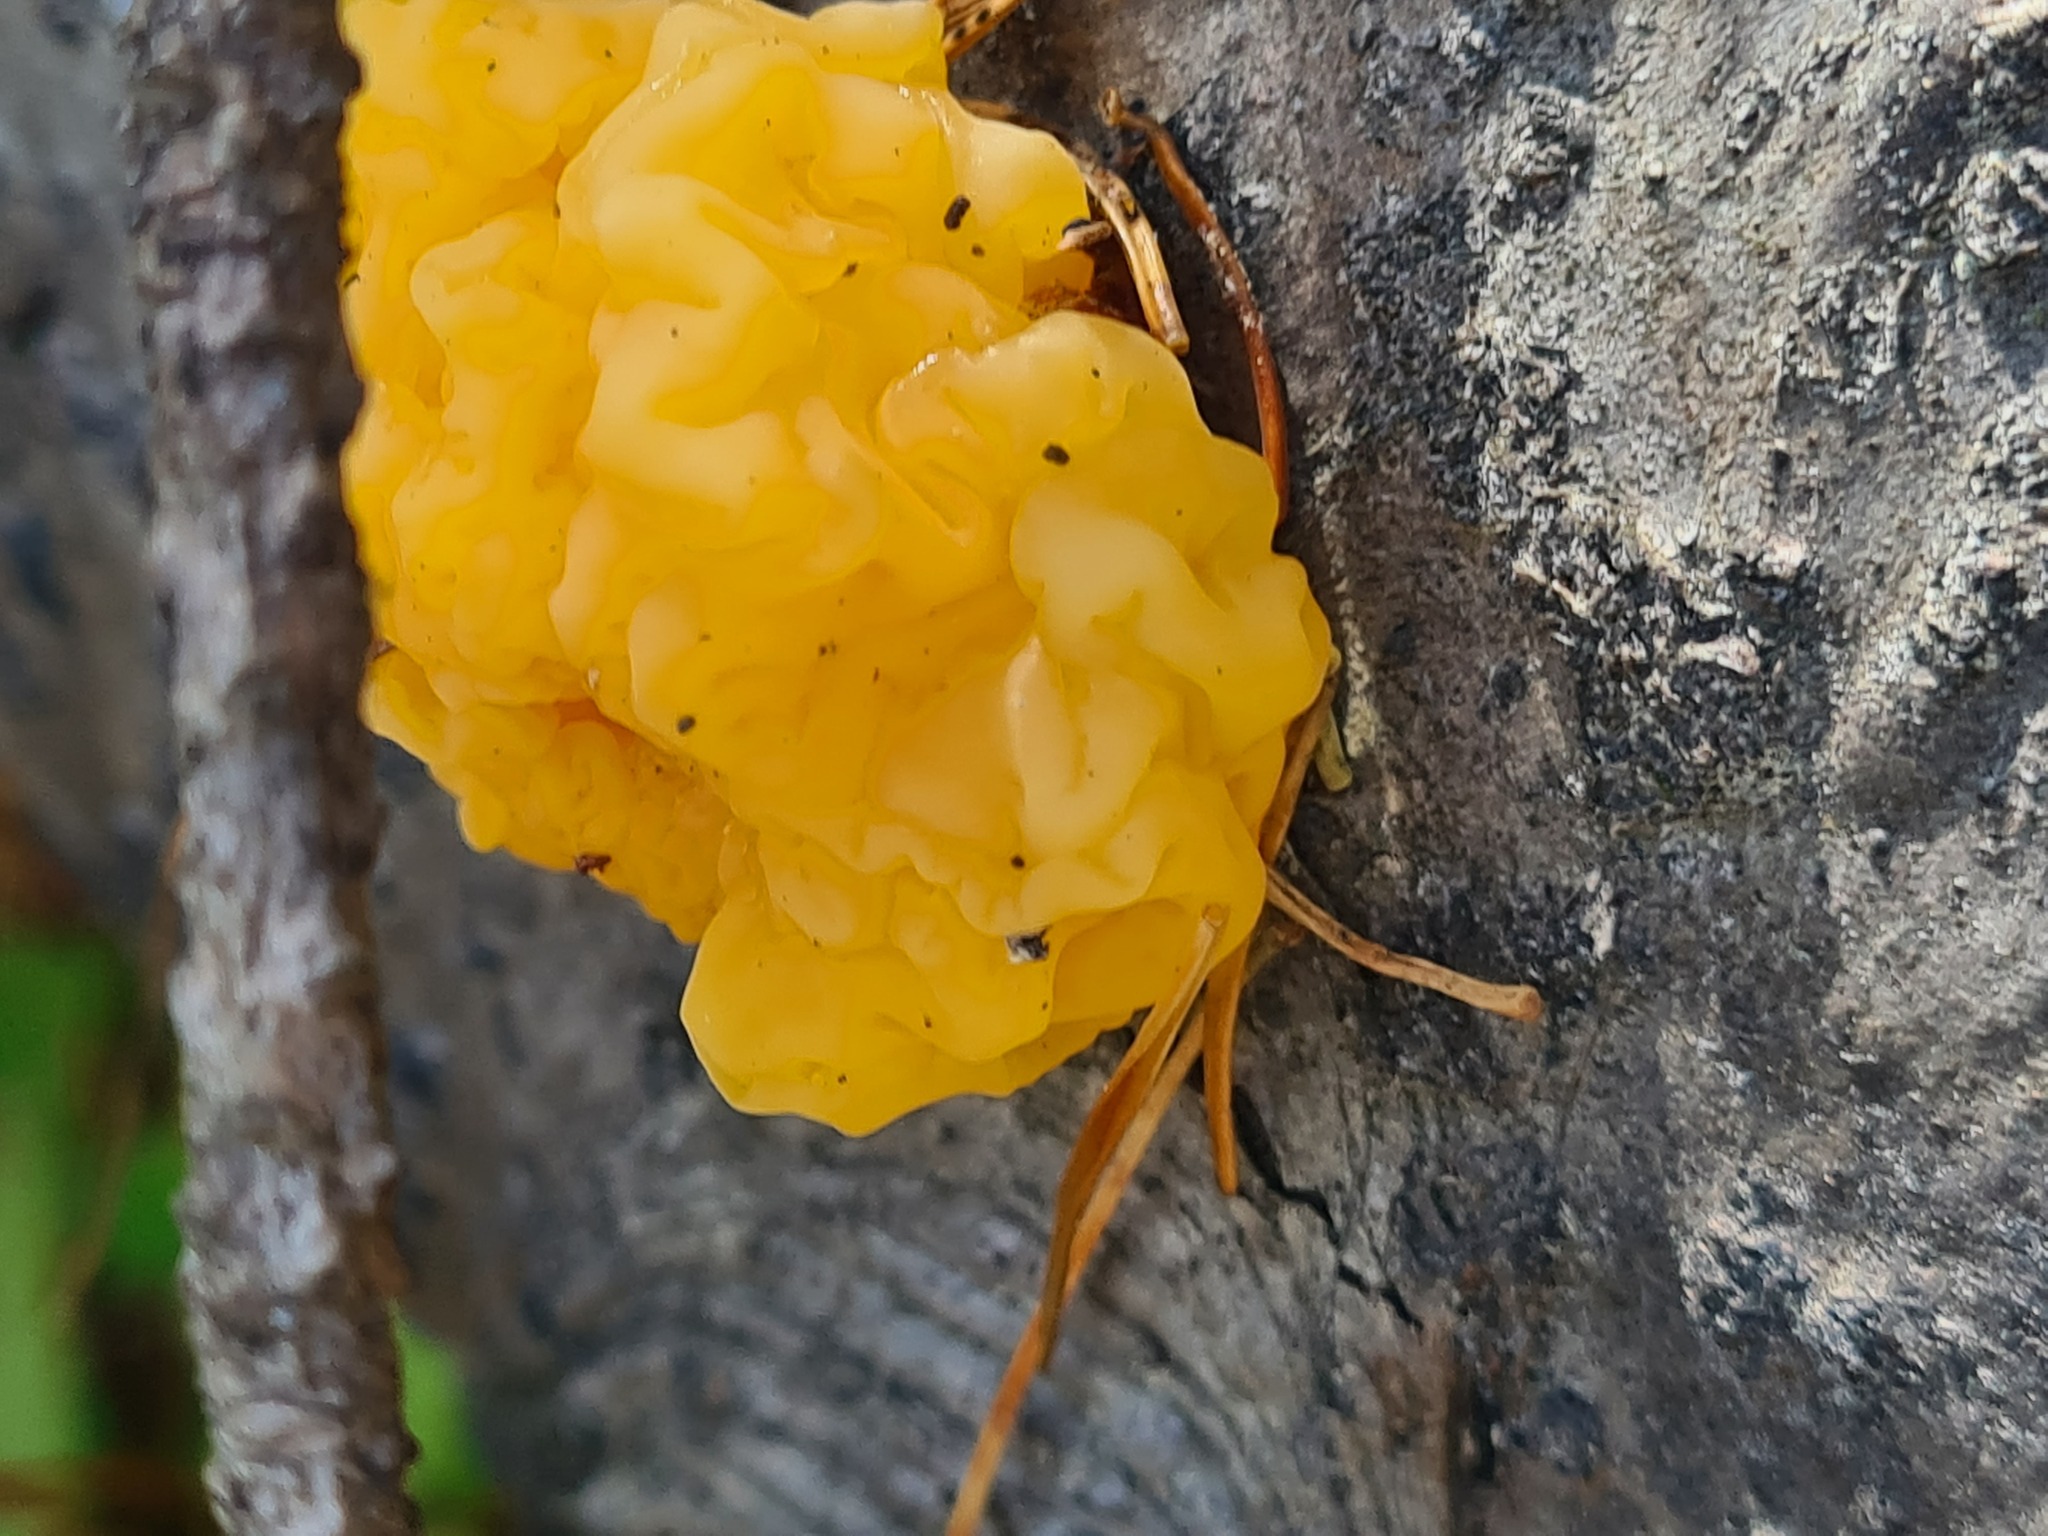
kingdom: Fungi
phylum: Basidiomycota
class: Dacrymycetes
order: Dacrymycetales
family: Dacrymycetaceae
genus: Dacrymyces
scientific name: Dacrymyces chrysospermus
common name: Orange jelly spot
